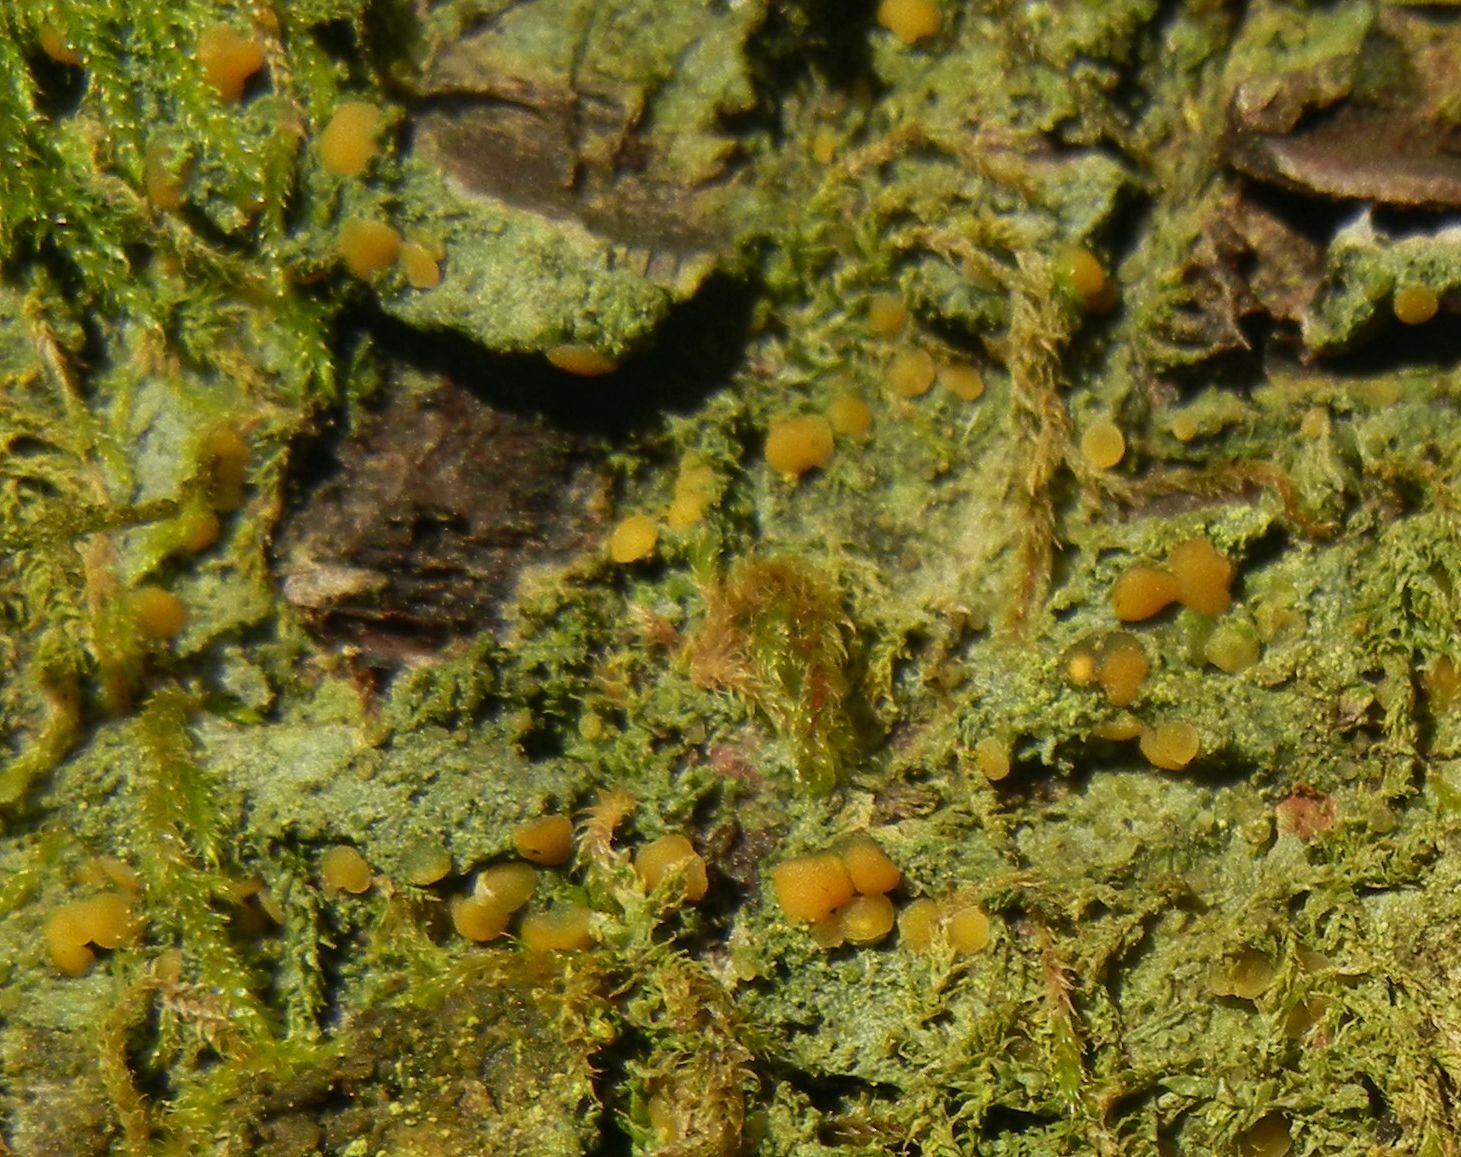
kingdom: Fungi
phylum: Ascomycota
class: Lecanoromycetes
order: Ostropales
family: Coenogoniaceae
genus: Coenogonium
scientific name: Coenogonium luteum
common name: Orange dimple lichen
